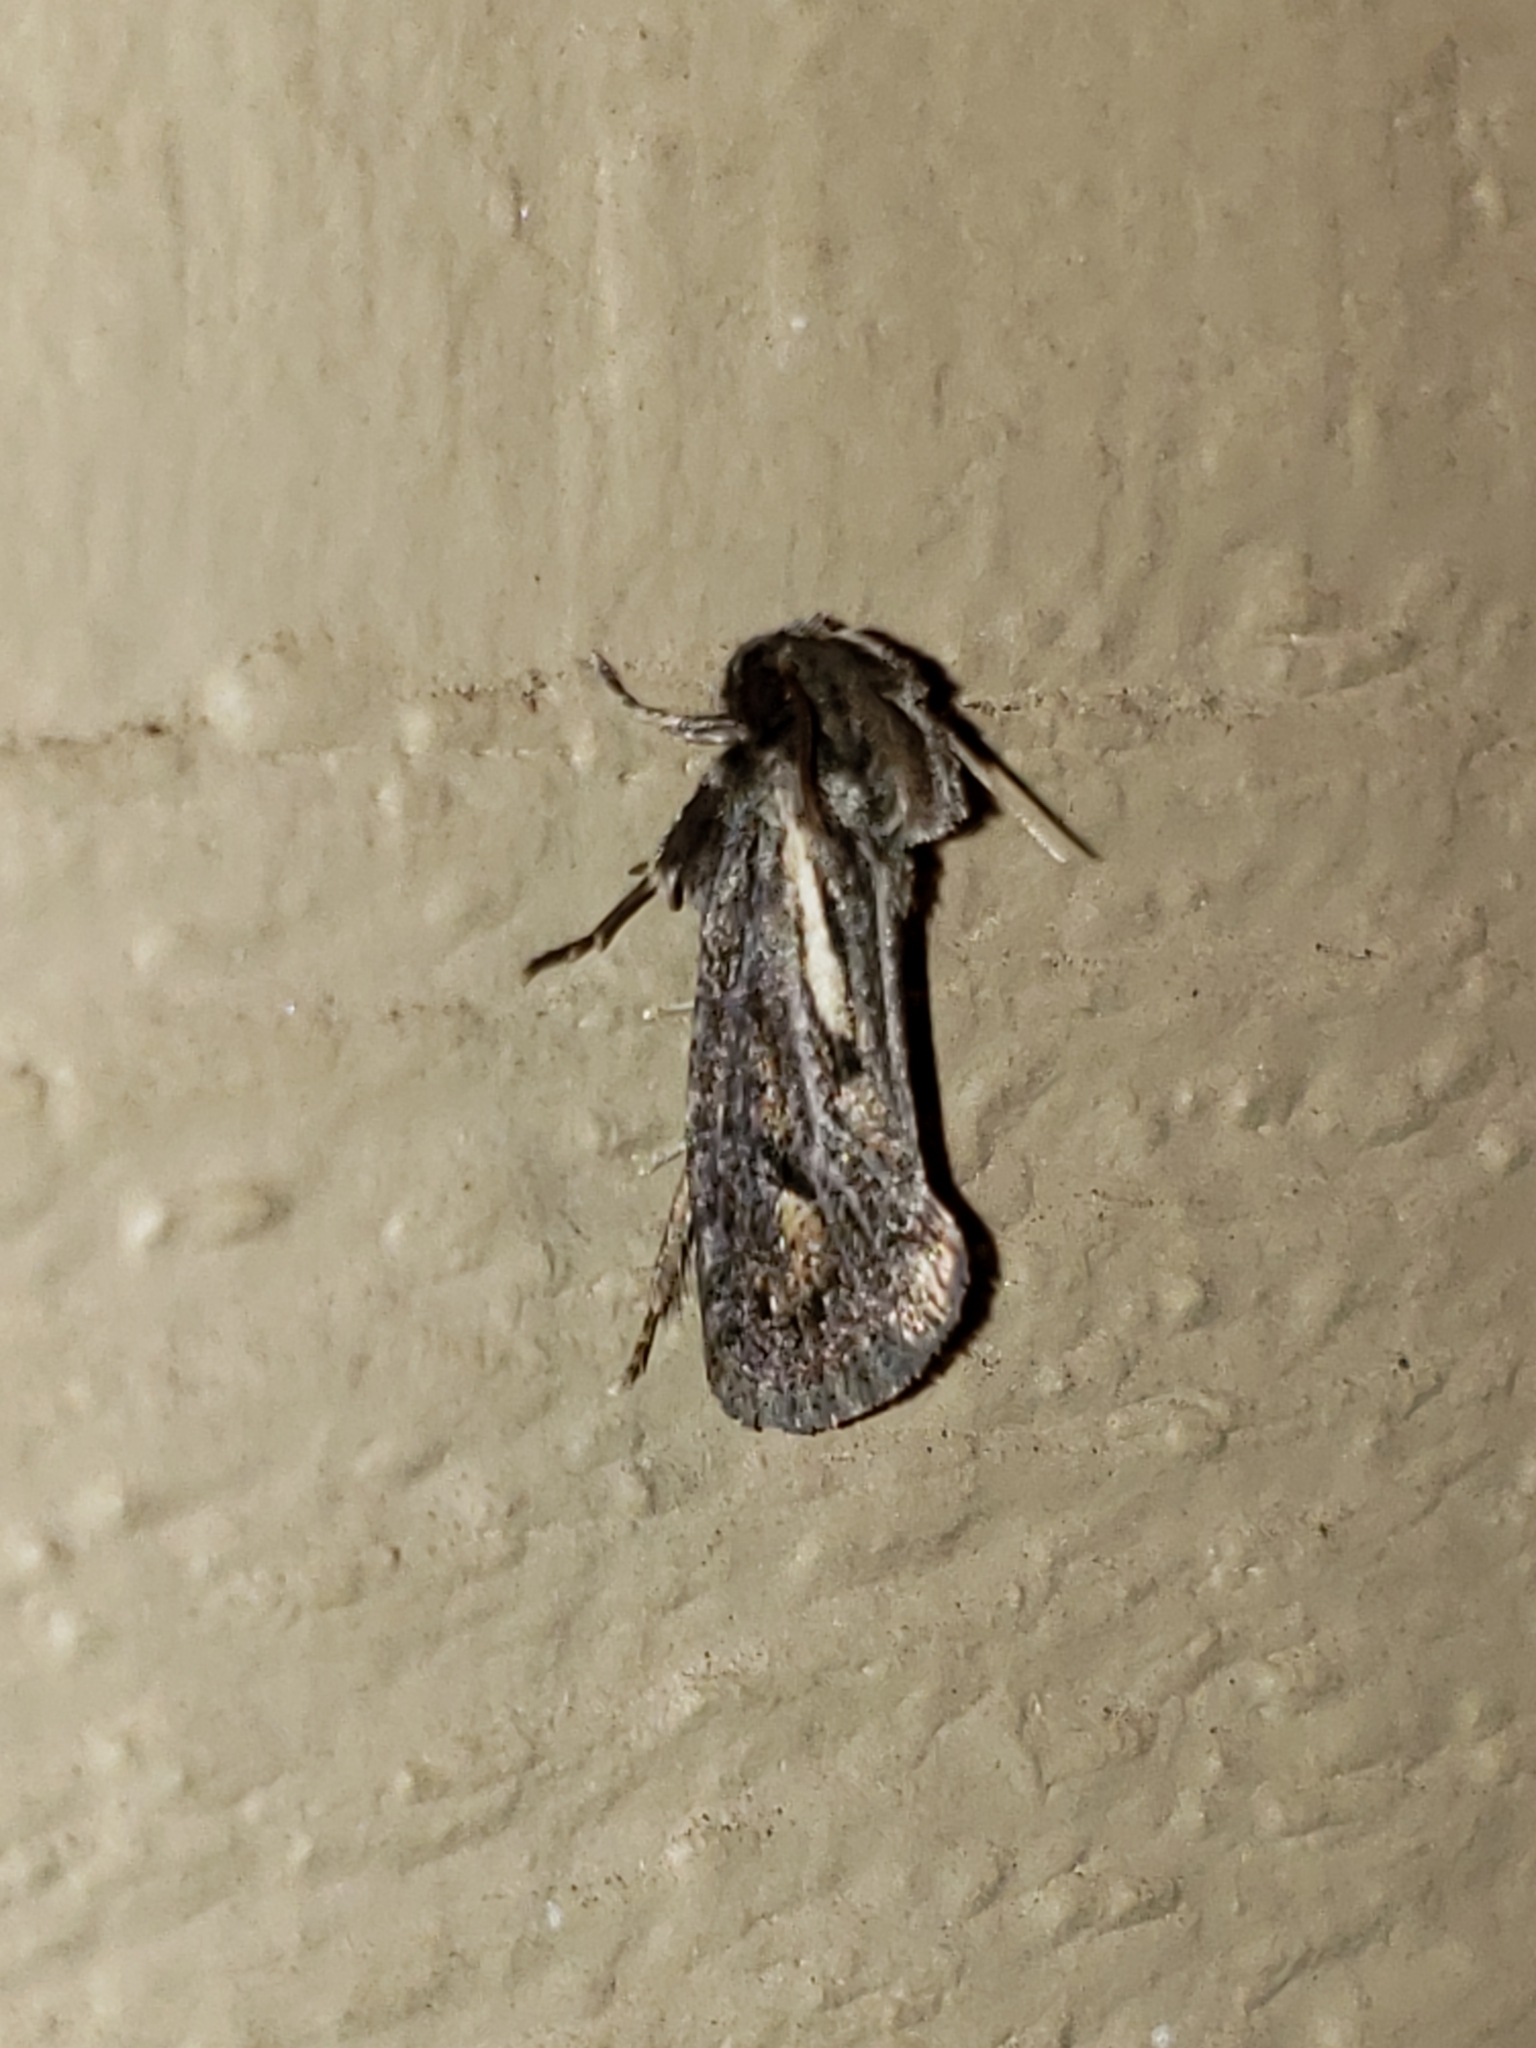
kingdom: Animalia
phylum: Arthropoda
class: Insecta
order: Lepidoptera
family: Tineidae
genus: Acrolophus
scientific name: Acrolophus popeanella
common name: Clemens' grass tubeworm moth
